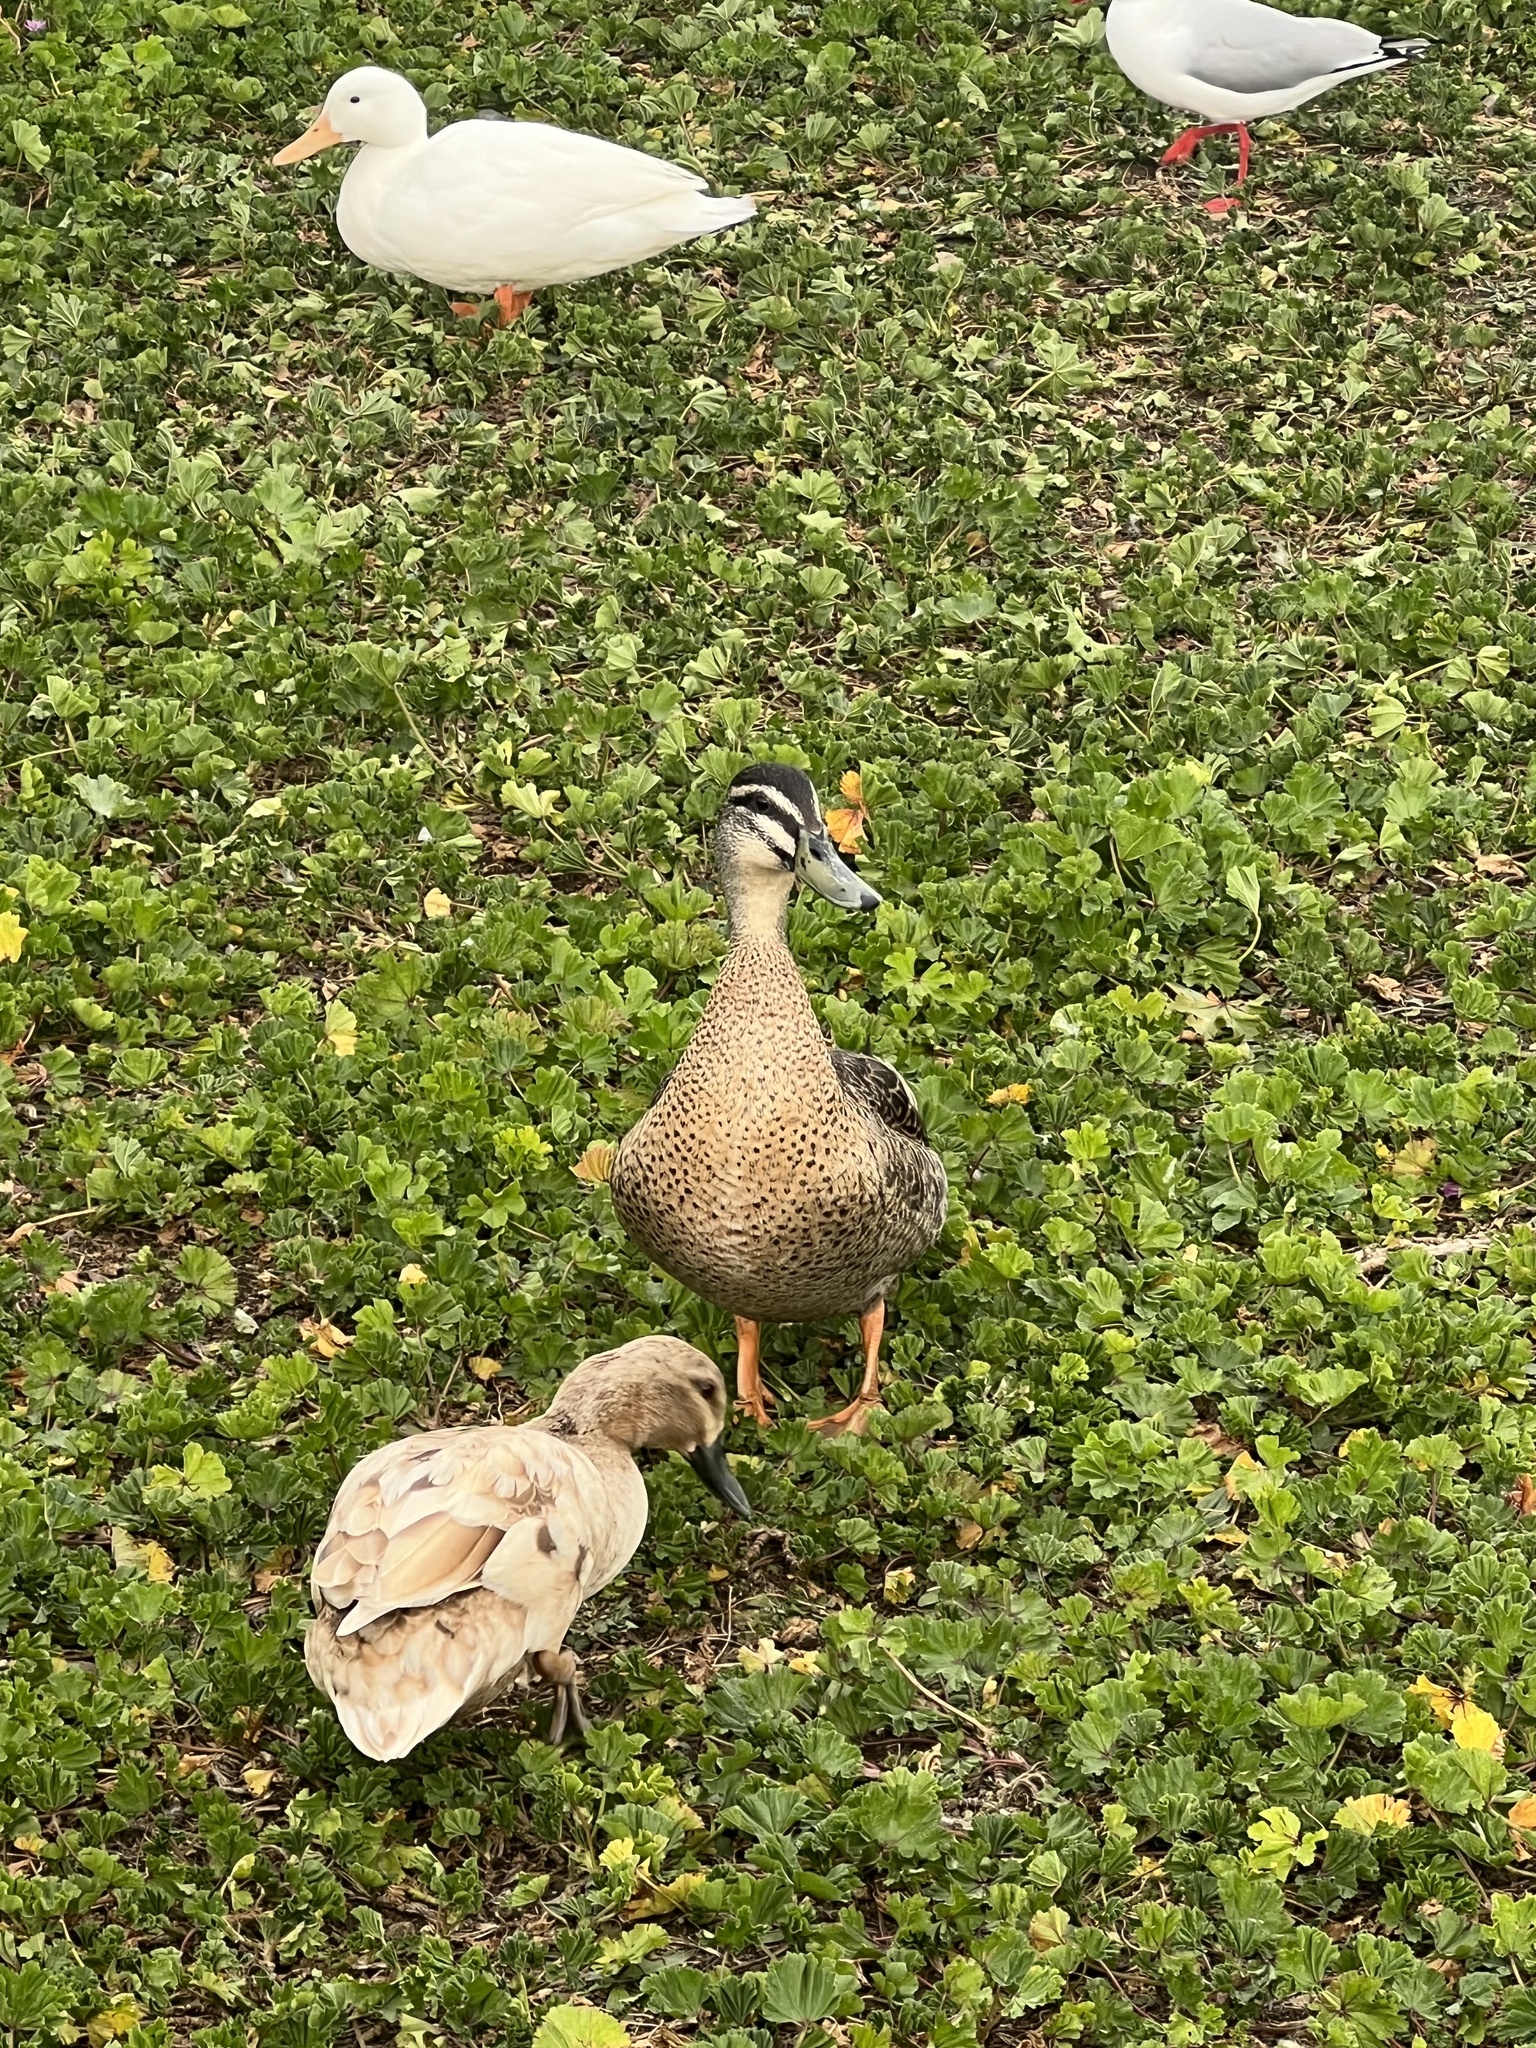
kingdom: Animalia
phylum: Chordata
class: Aves
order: Anseriformes
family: Anatidae
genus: Anas
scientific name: Anas
